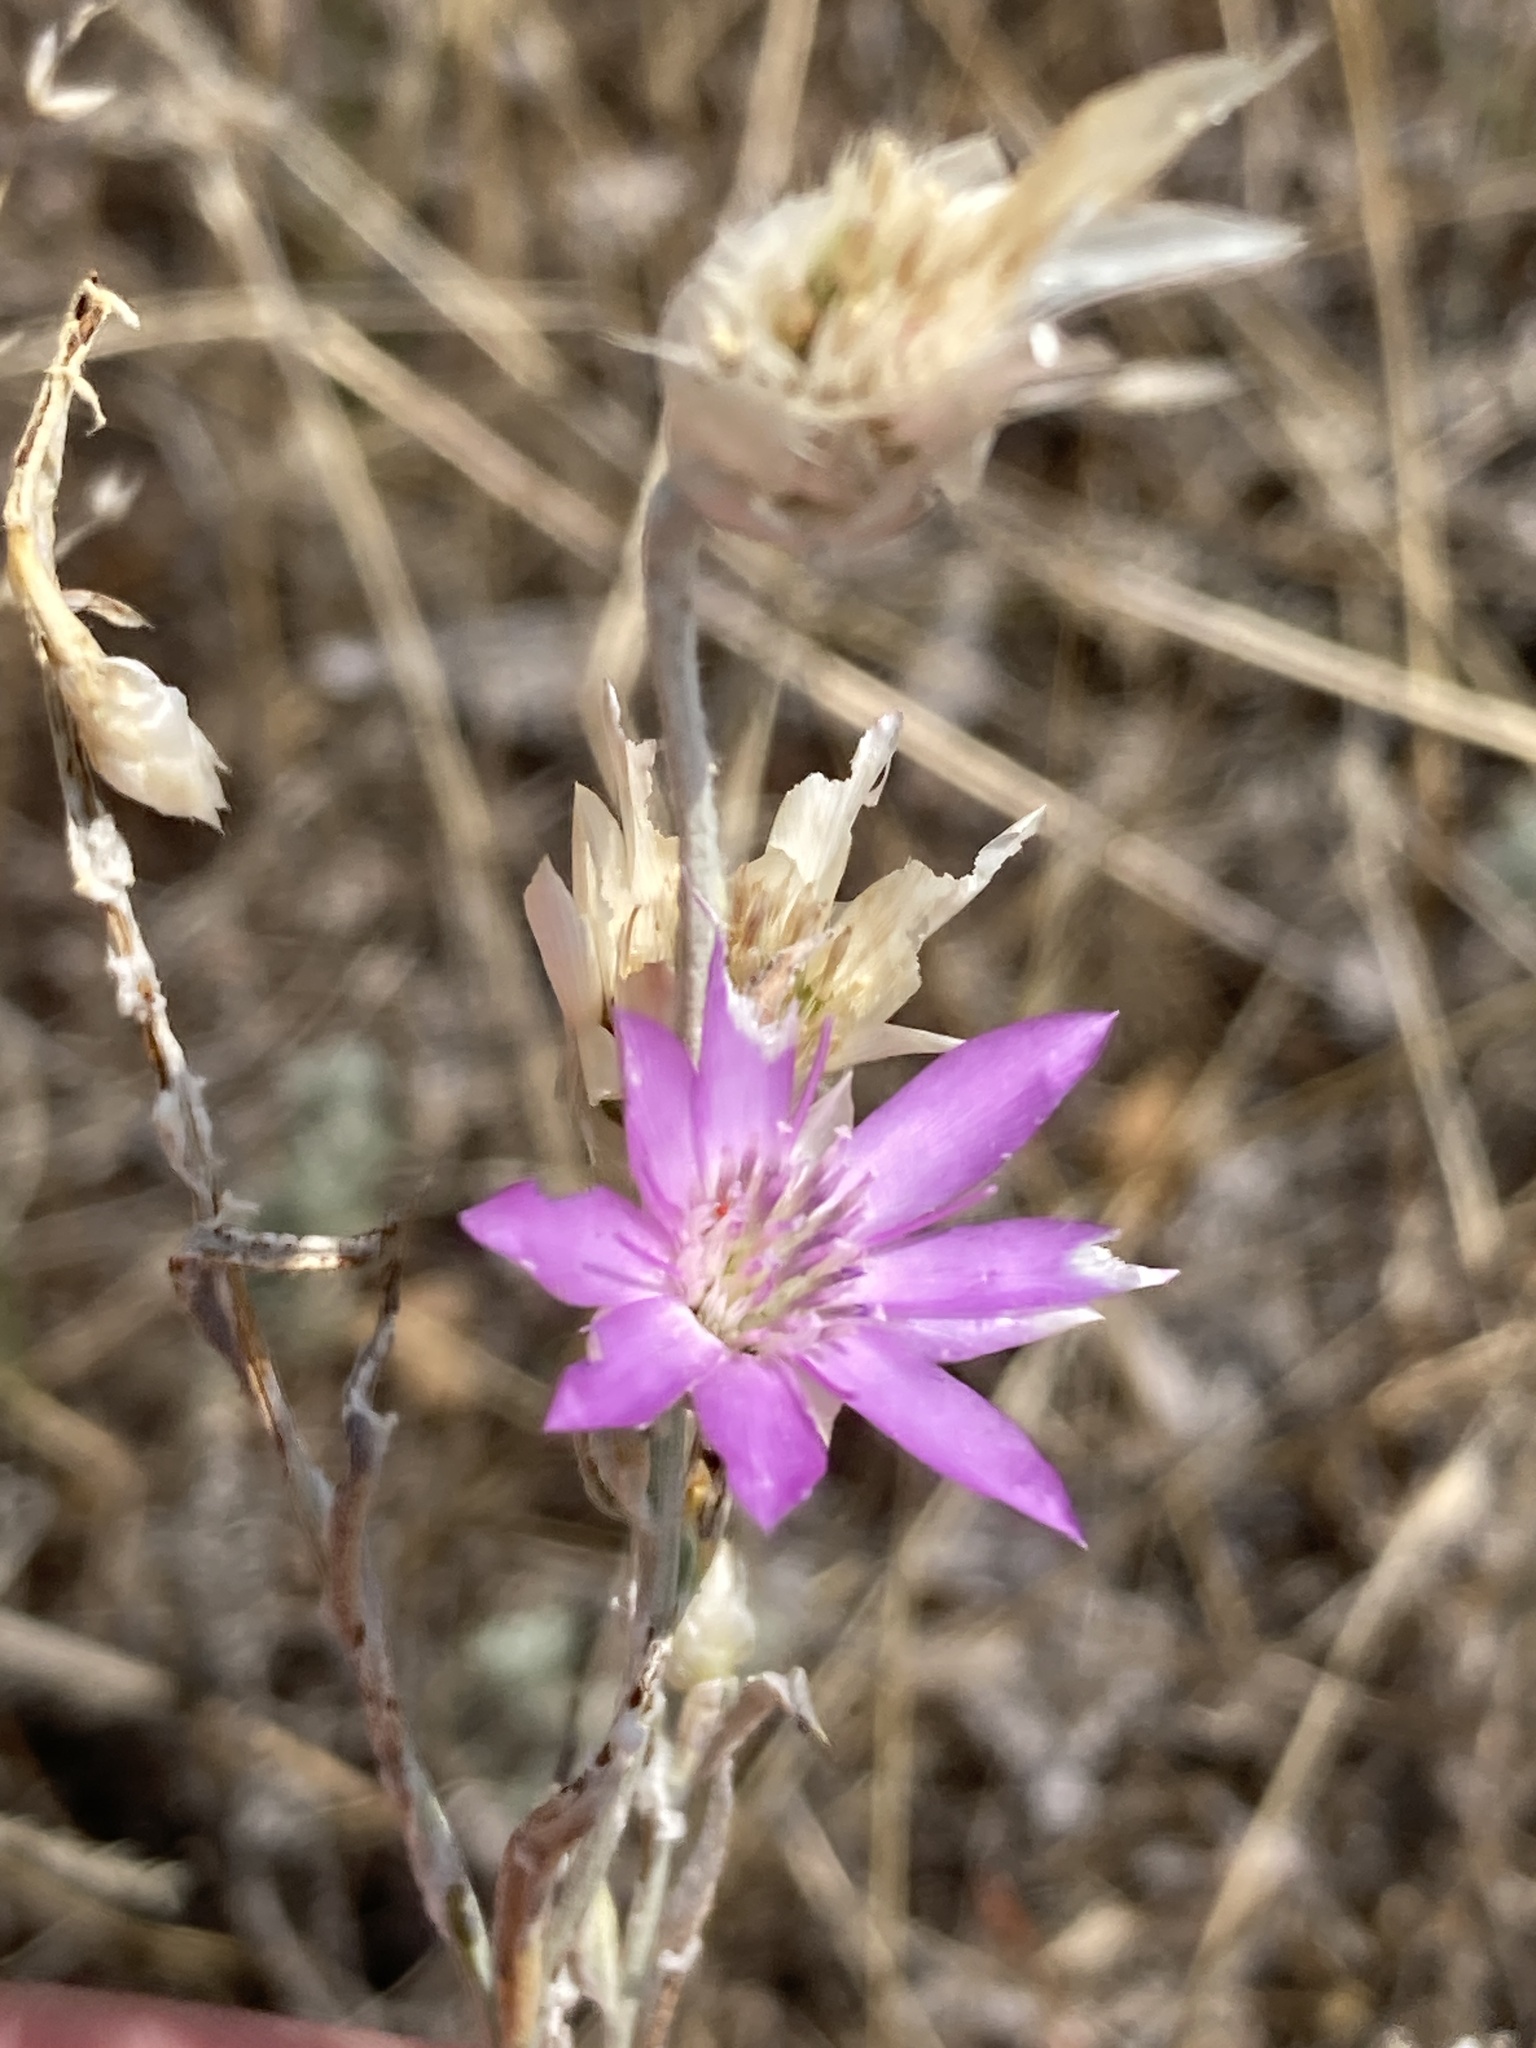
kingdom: Plantae
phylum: Tracheophyta
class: Magnoliopsida
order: Asterales
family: Asteraceae
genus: Xeranthemum
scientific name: Xeranthemum annuum
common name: Immortelle
